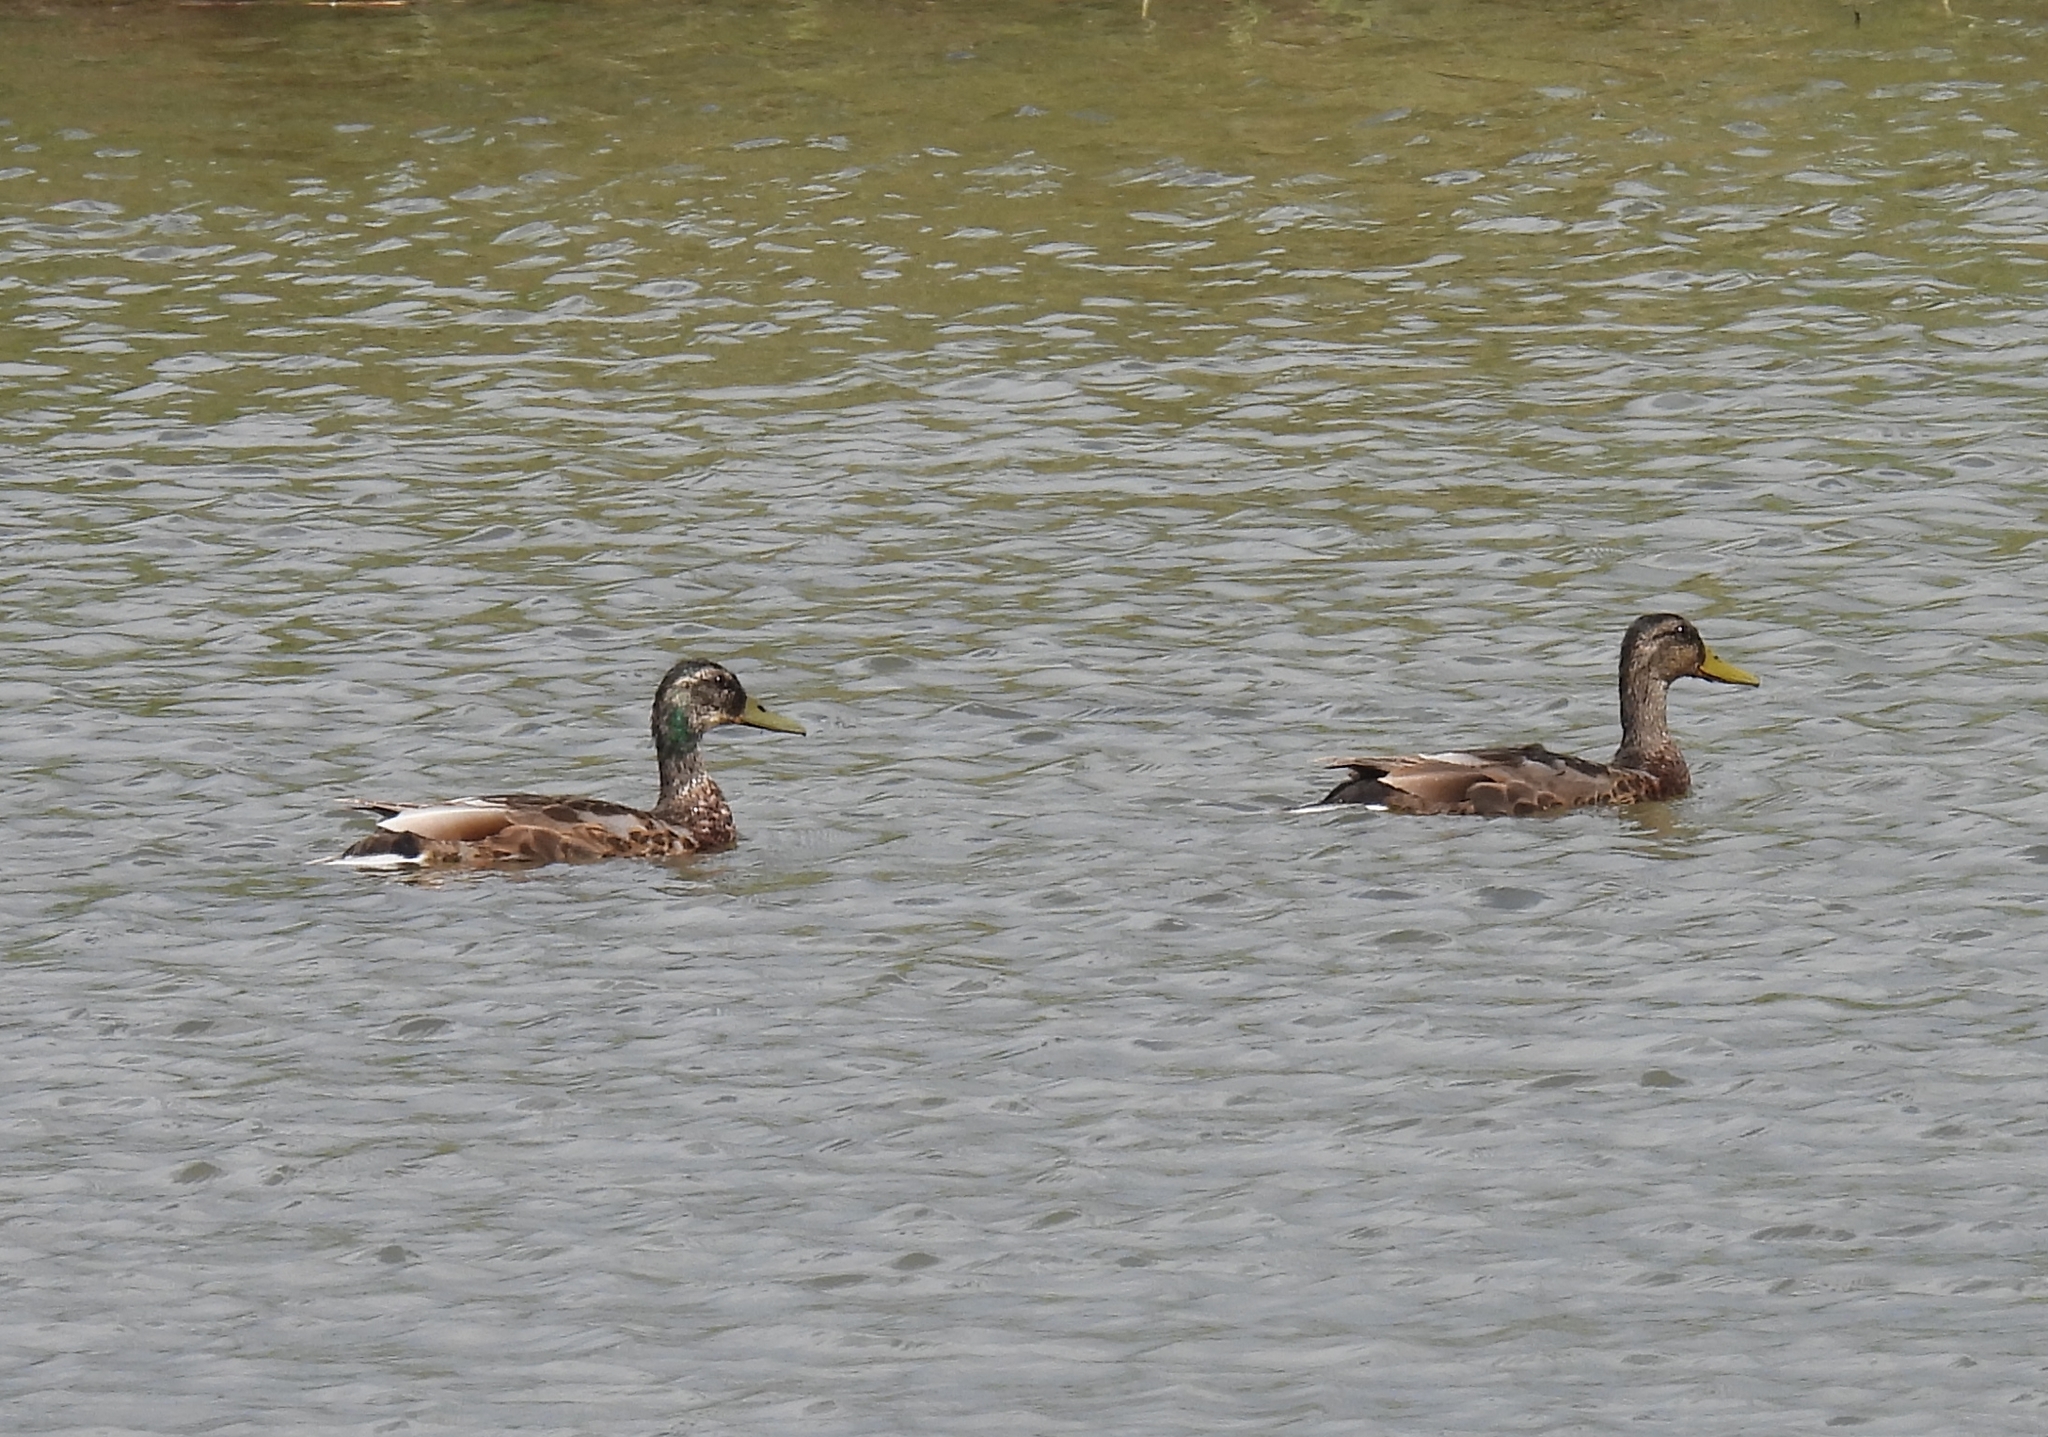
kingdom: Animalia
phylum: Chordata
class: Aves
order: Anseriformes
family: Anatidae
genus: Anas
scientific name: Anas platyrhynchos
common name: Mallard
